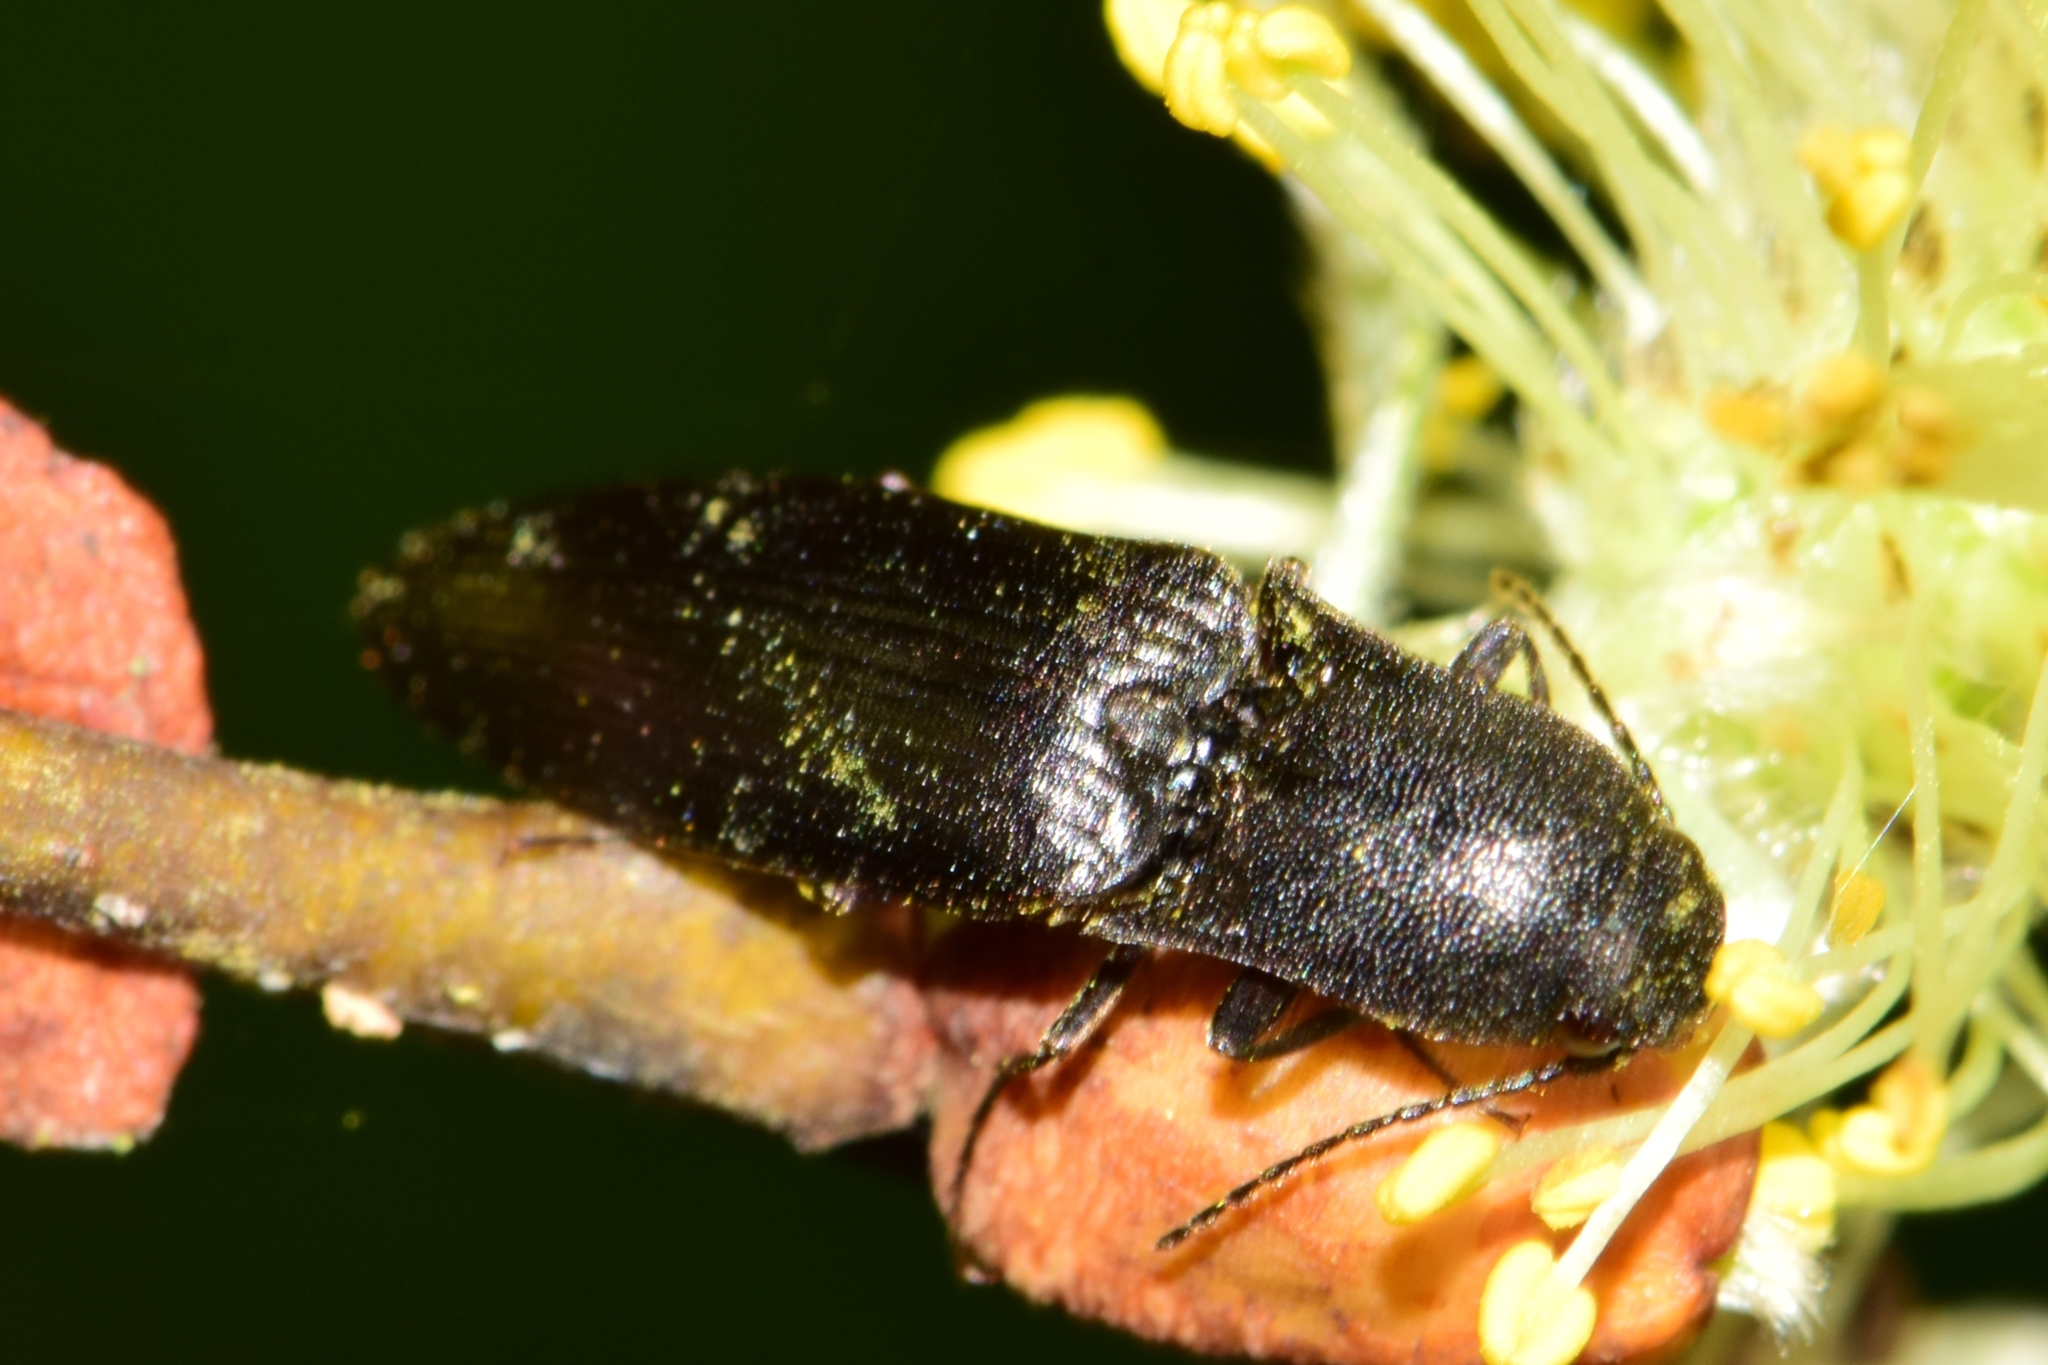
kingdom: Animalia
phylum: Arthropoda
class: Insecta
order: Coleoptera
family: Elateridae
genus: Ectinus
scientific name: Ectinus aterrimus
